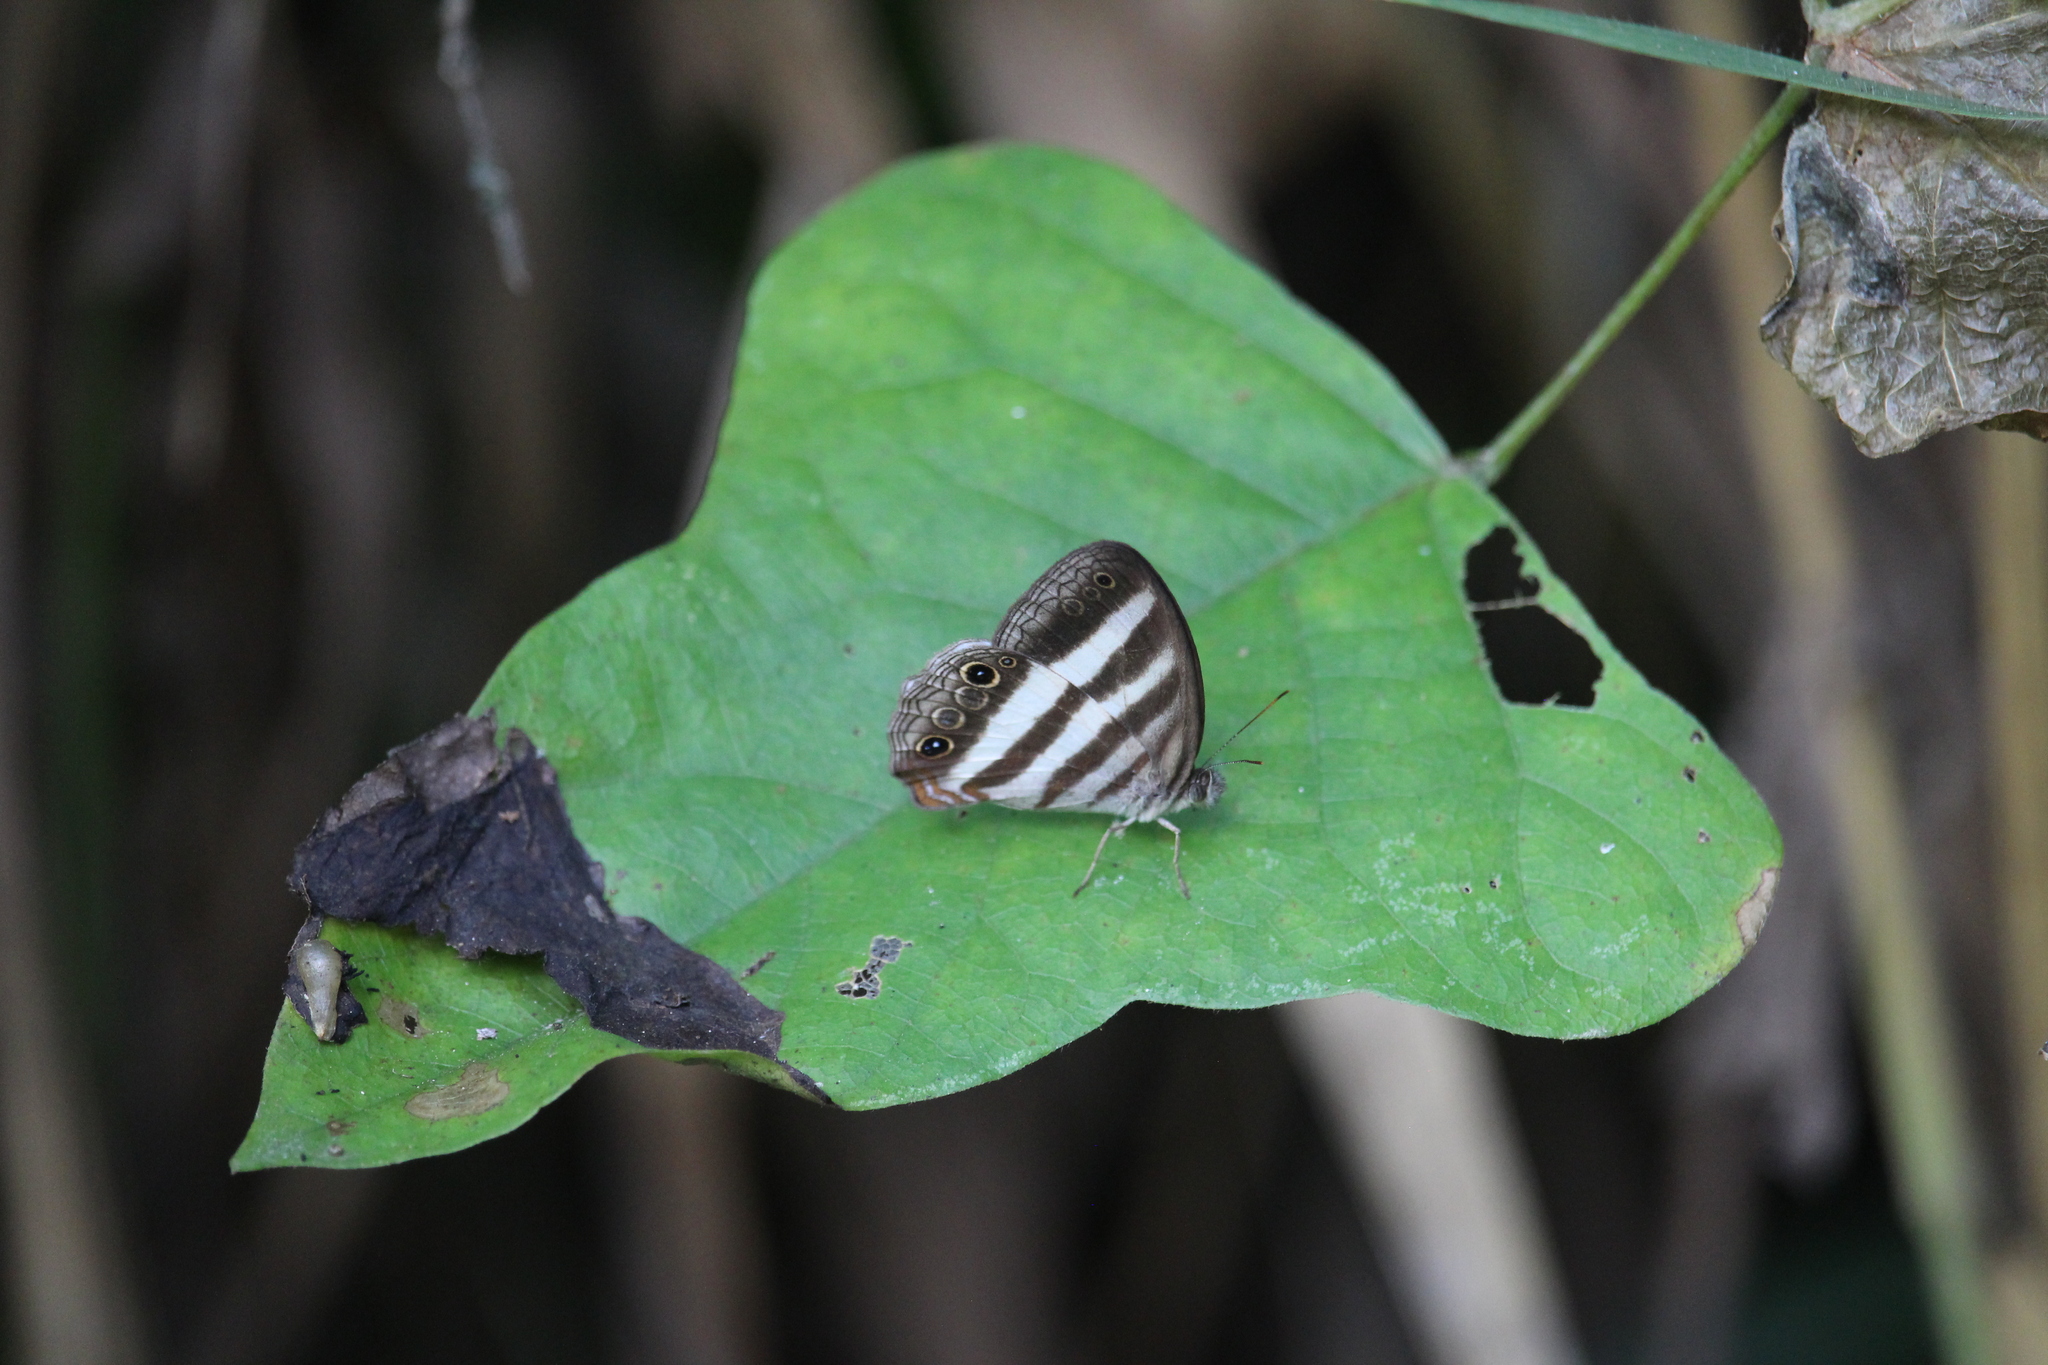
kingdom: Animalia
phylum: Arthropoda
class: Insecta
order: Lepidoptera
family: Nymphalidae
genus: Pareuptychia
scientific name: Pareuptychia hesione
